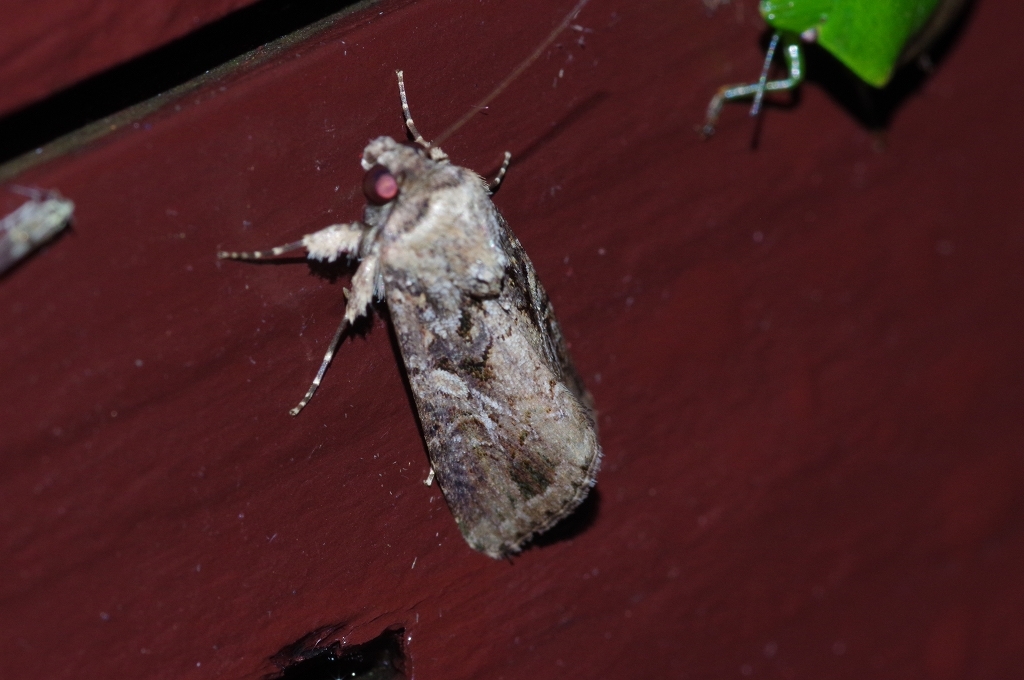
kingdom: Animalia
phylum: Arthropoda
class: Insecta
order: Lepidoptera
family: Noctuidae
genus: Spodoptera
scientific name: Spodoptera depravata
